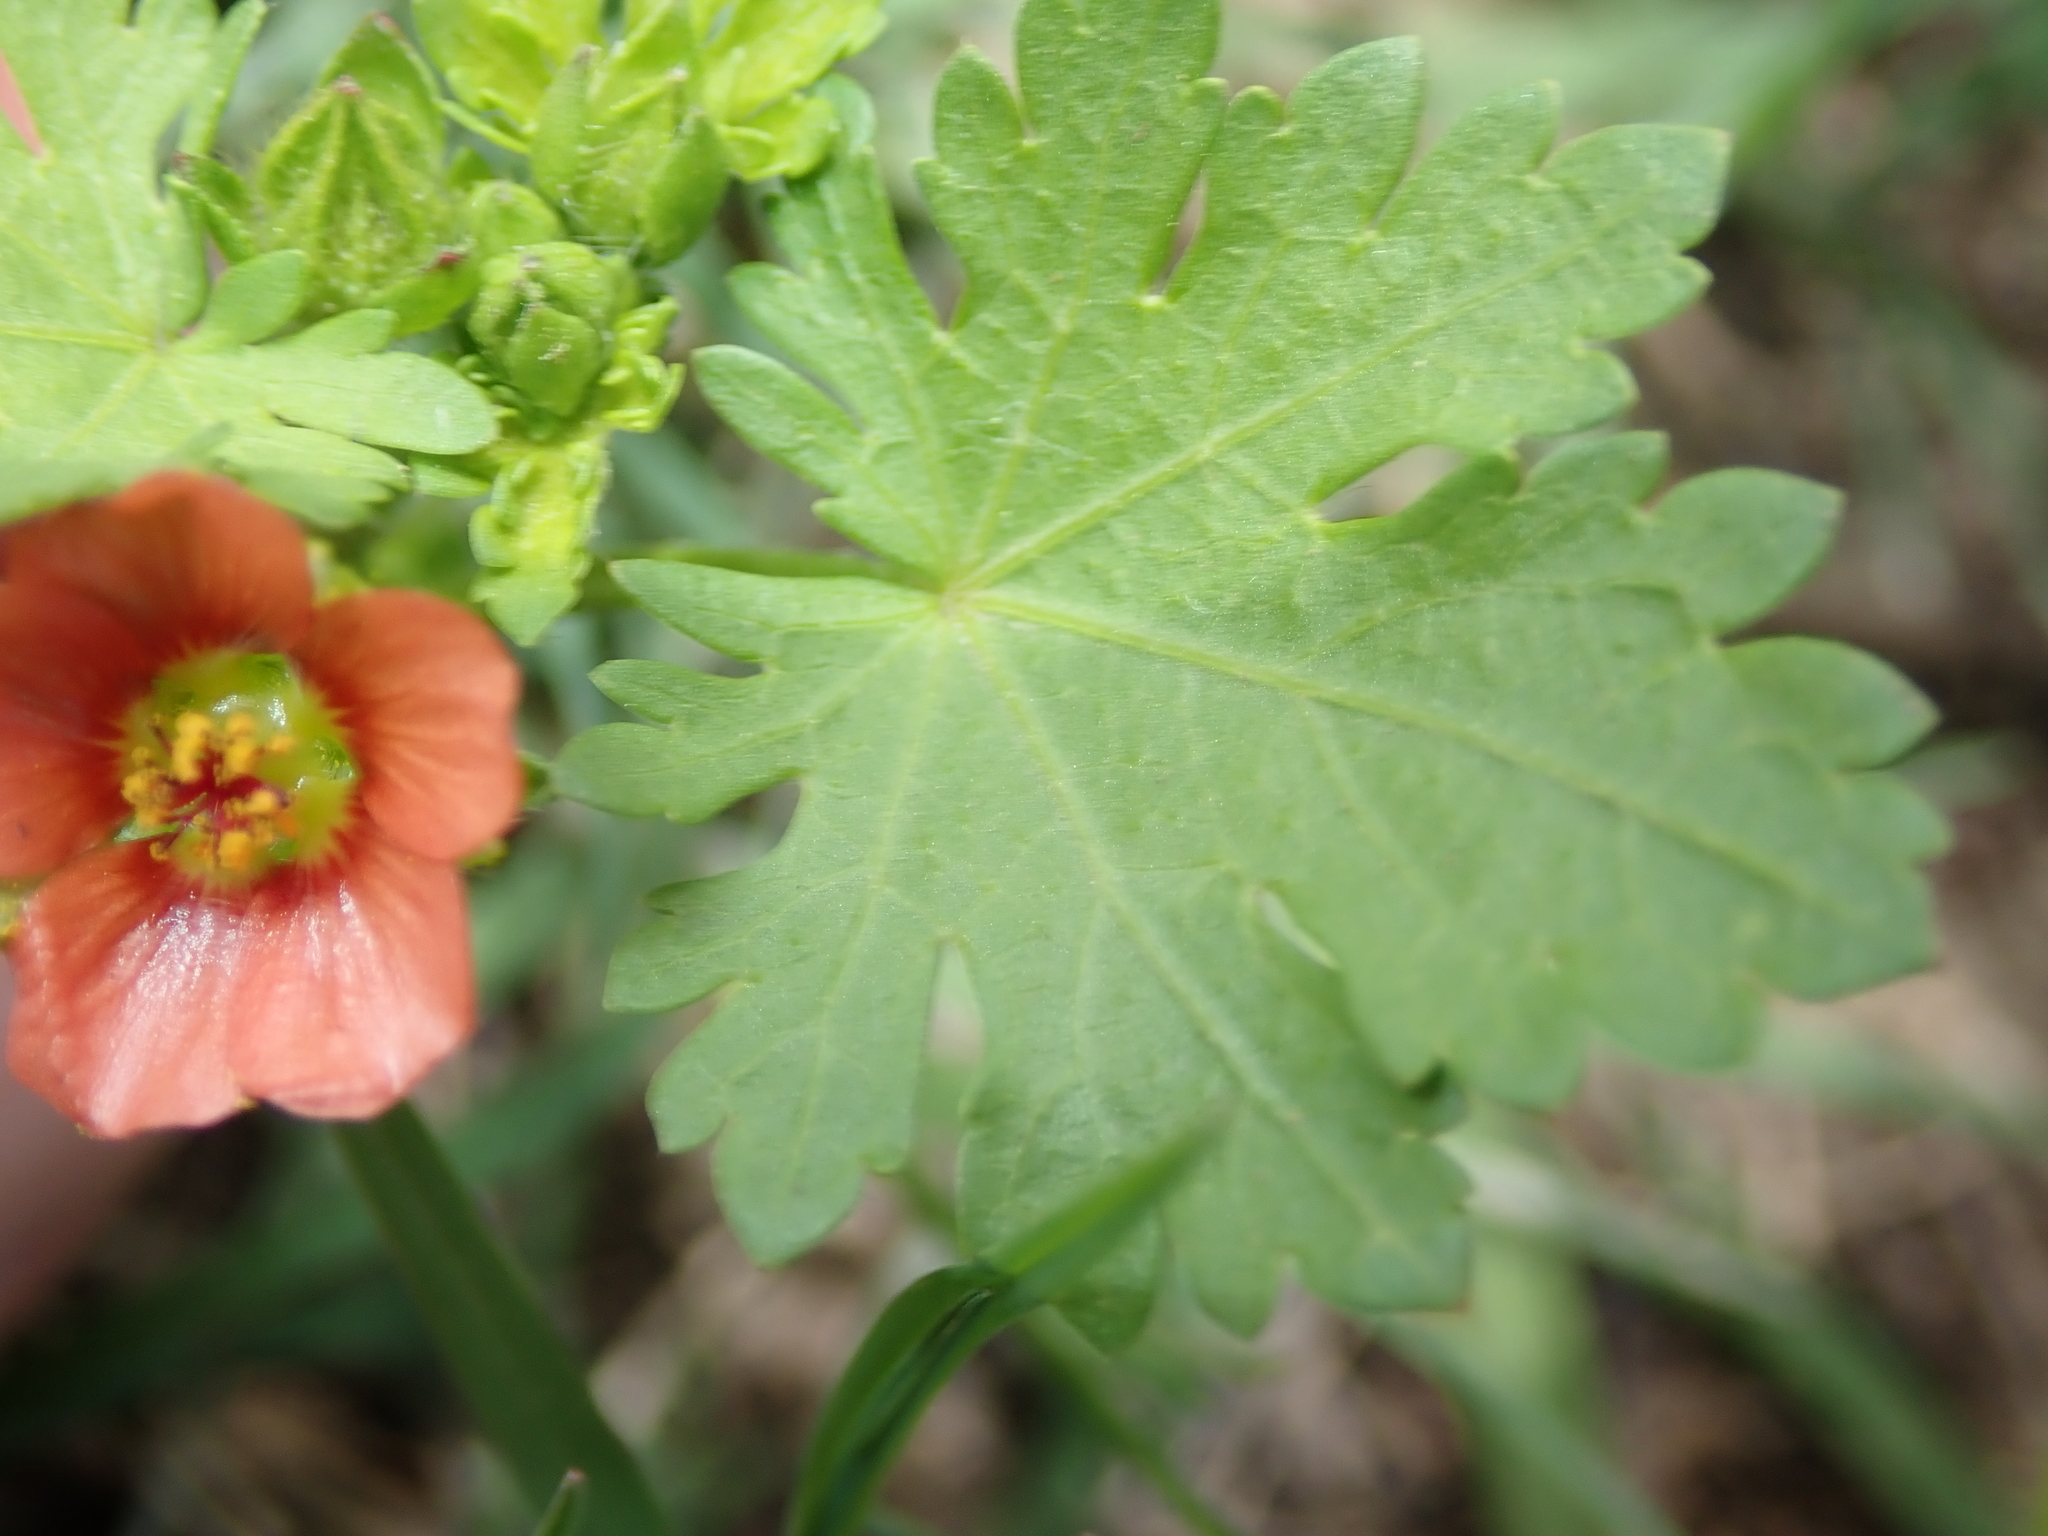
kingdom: Plantae
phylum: Tracheophyta
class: Magnoliopsida
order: Malvales
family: Malvaceae
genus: Modiola
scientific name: Modiola caroliniana
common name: Carolina bristlemallow
